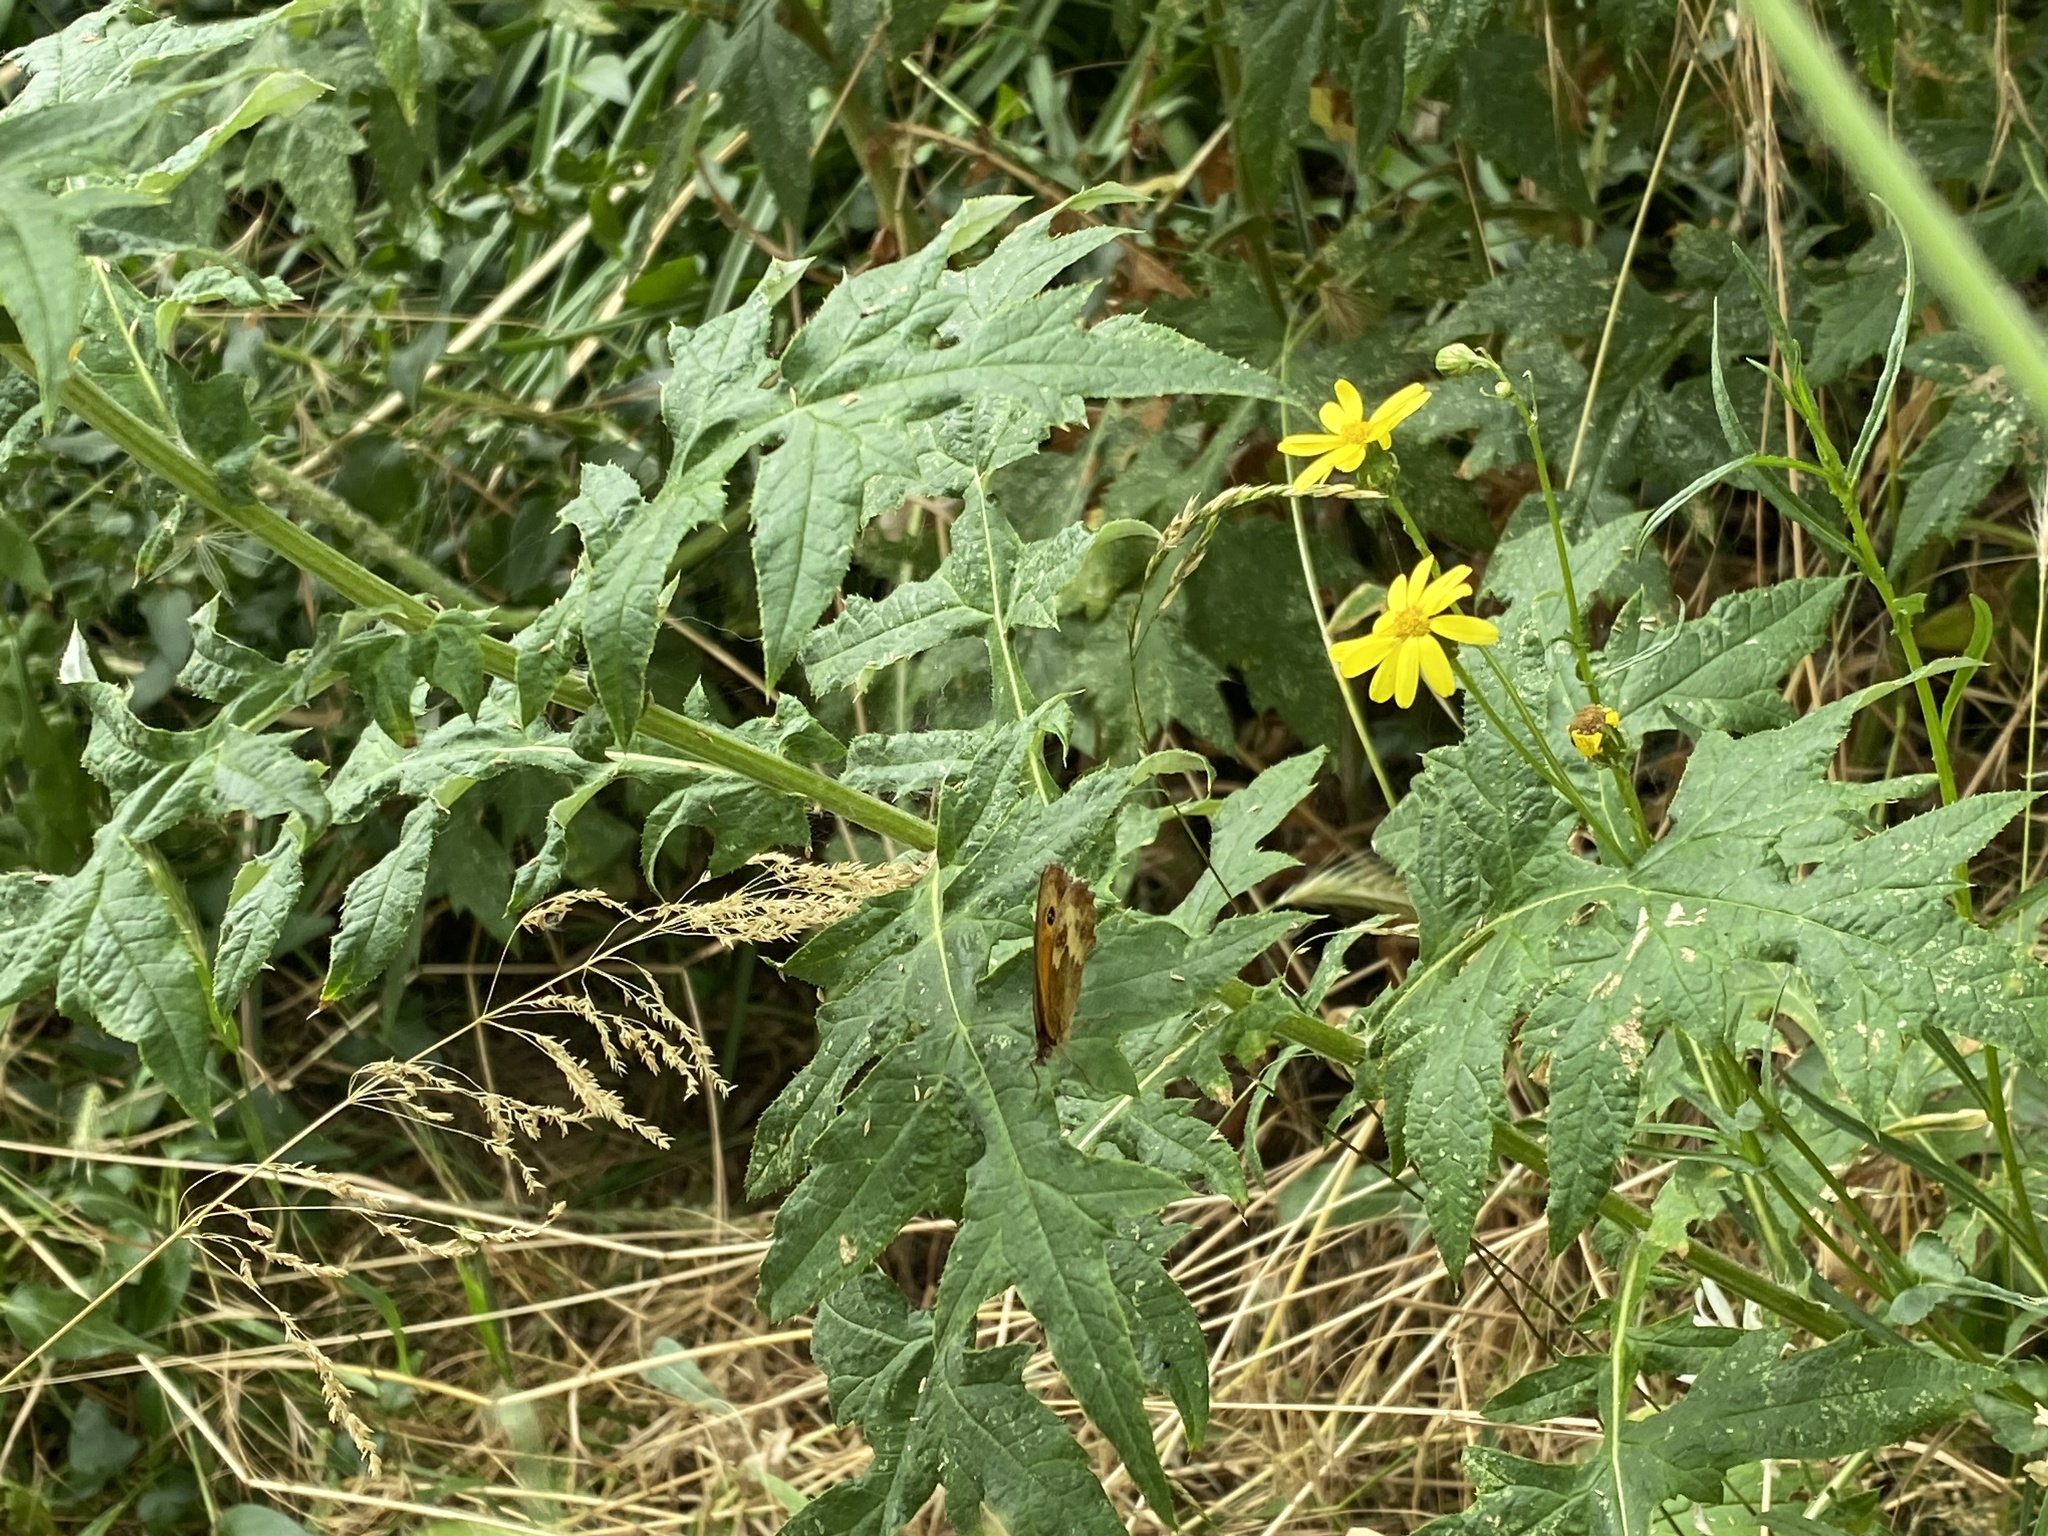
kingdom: Animalia
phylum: Arthropoda
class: Insecta
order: Lepidoptera
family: Nymphalidae
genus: Pyronia
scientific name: Pyronia tithonus
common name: Gatekeeper
